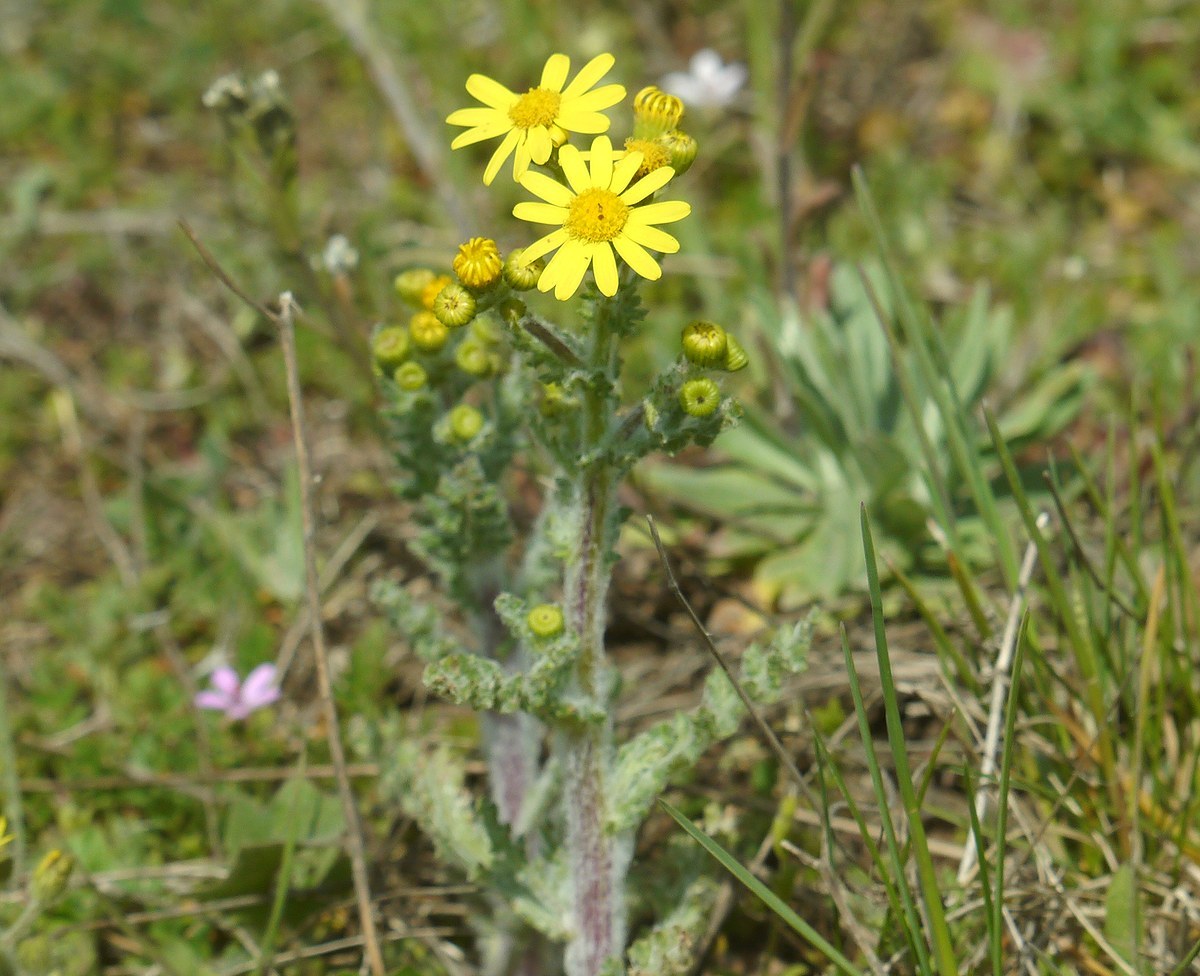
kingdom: Plantae
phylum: Tracheophyta
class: Magnoliopsida
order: Asterales
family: Asteraceae
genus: Senecio
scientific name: Senecio vernalis
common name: Eastern groundsel
